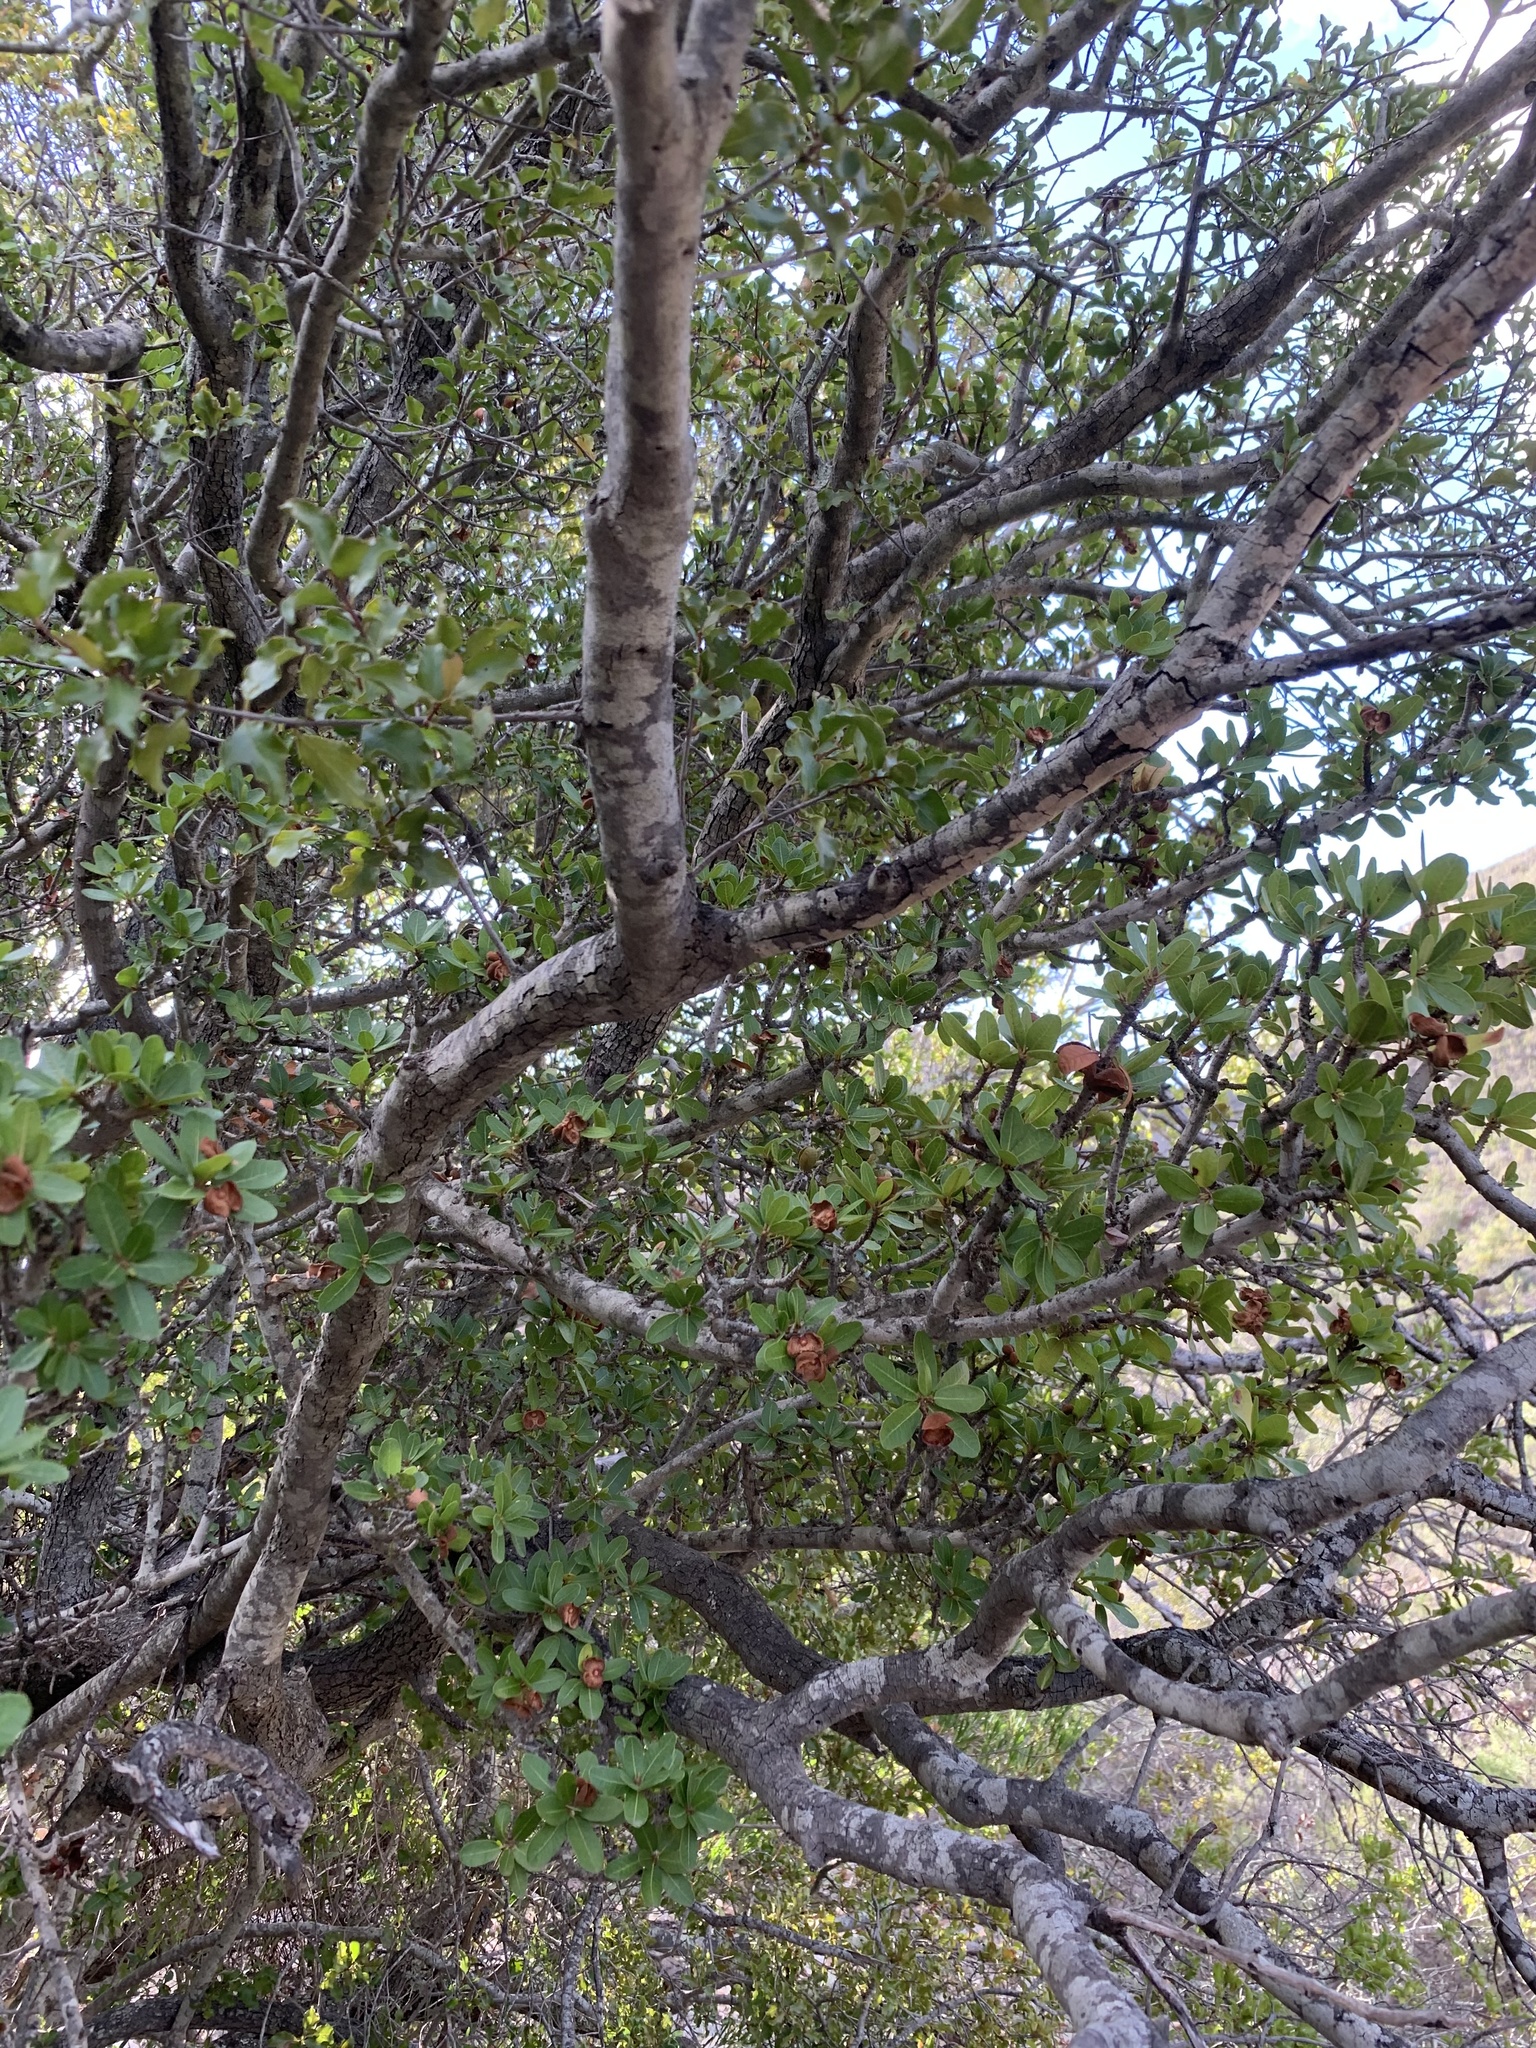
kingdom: Plantae
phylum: Tracheophyta
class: Magnoliopsida
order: Sapindales
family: Sapindaceae
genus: Pappea
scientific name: Pappea capensis
